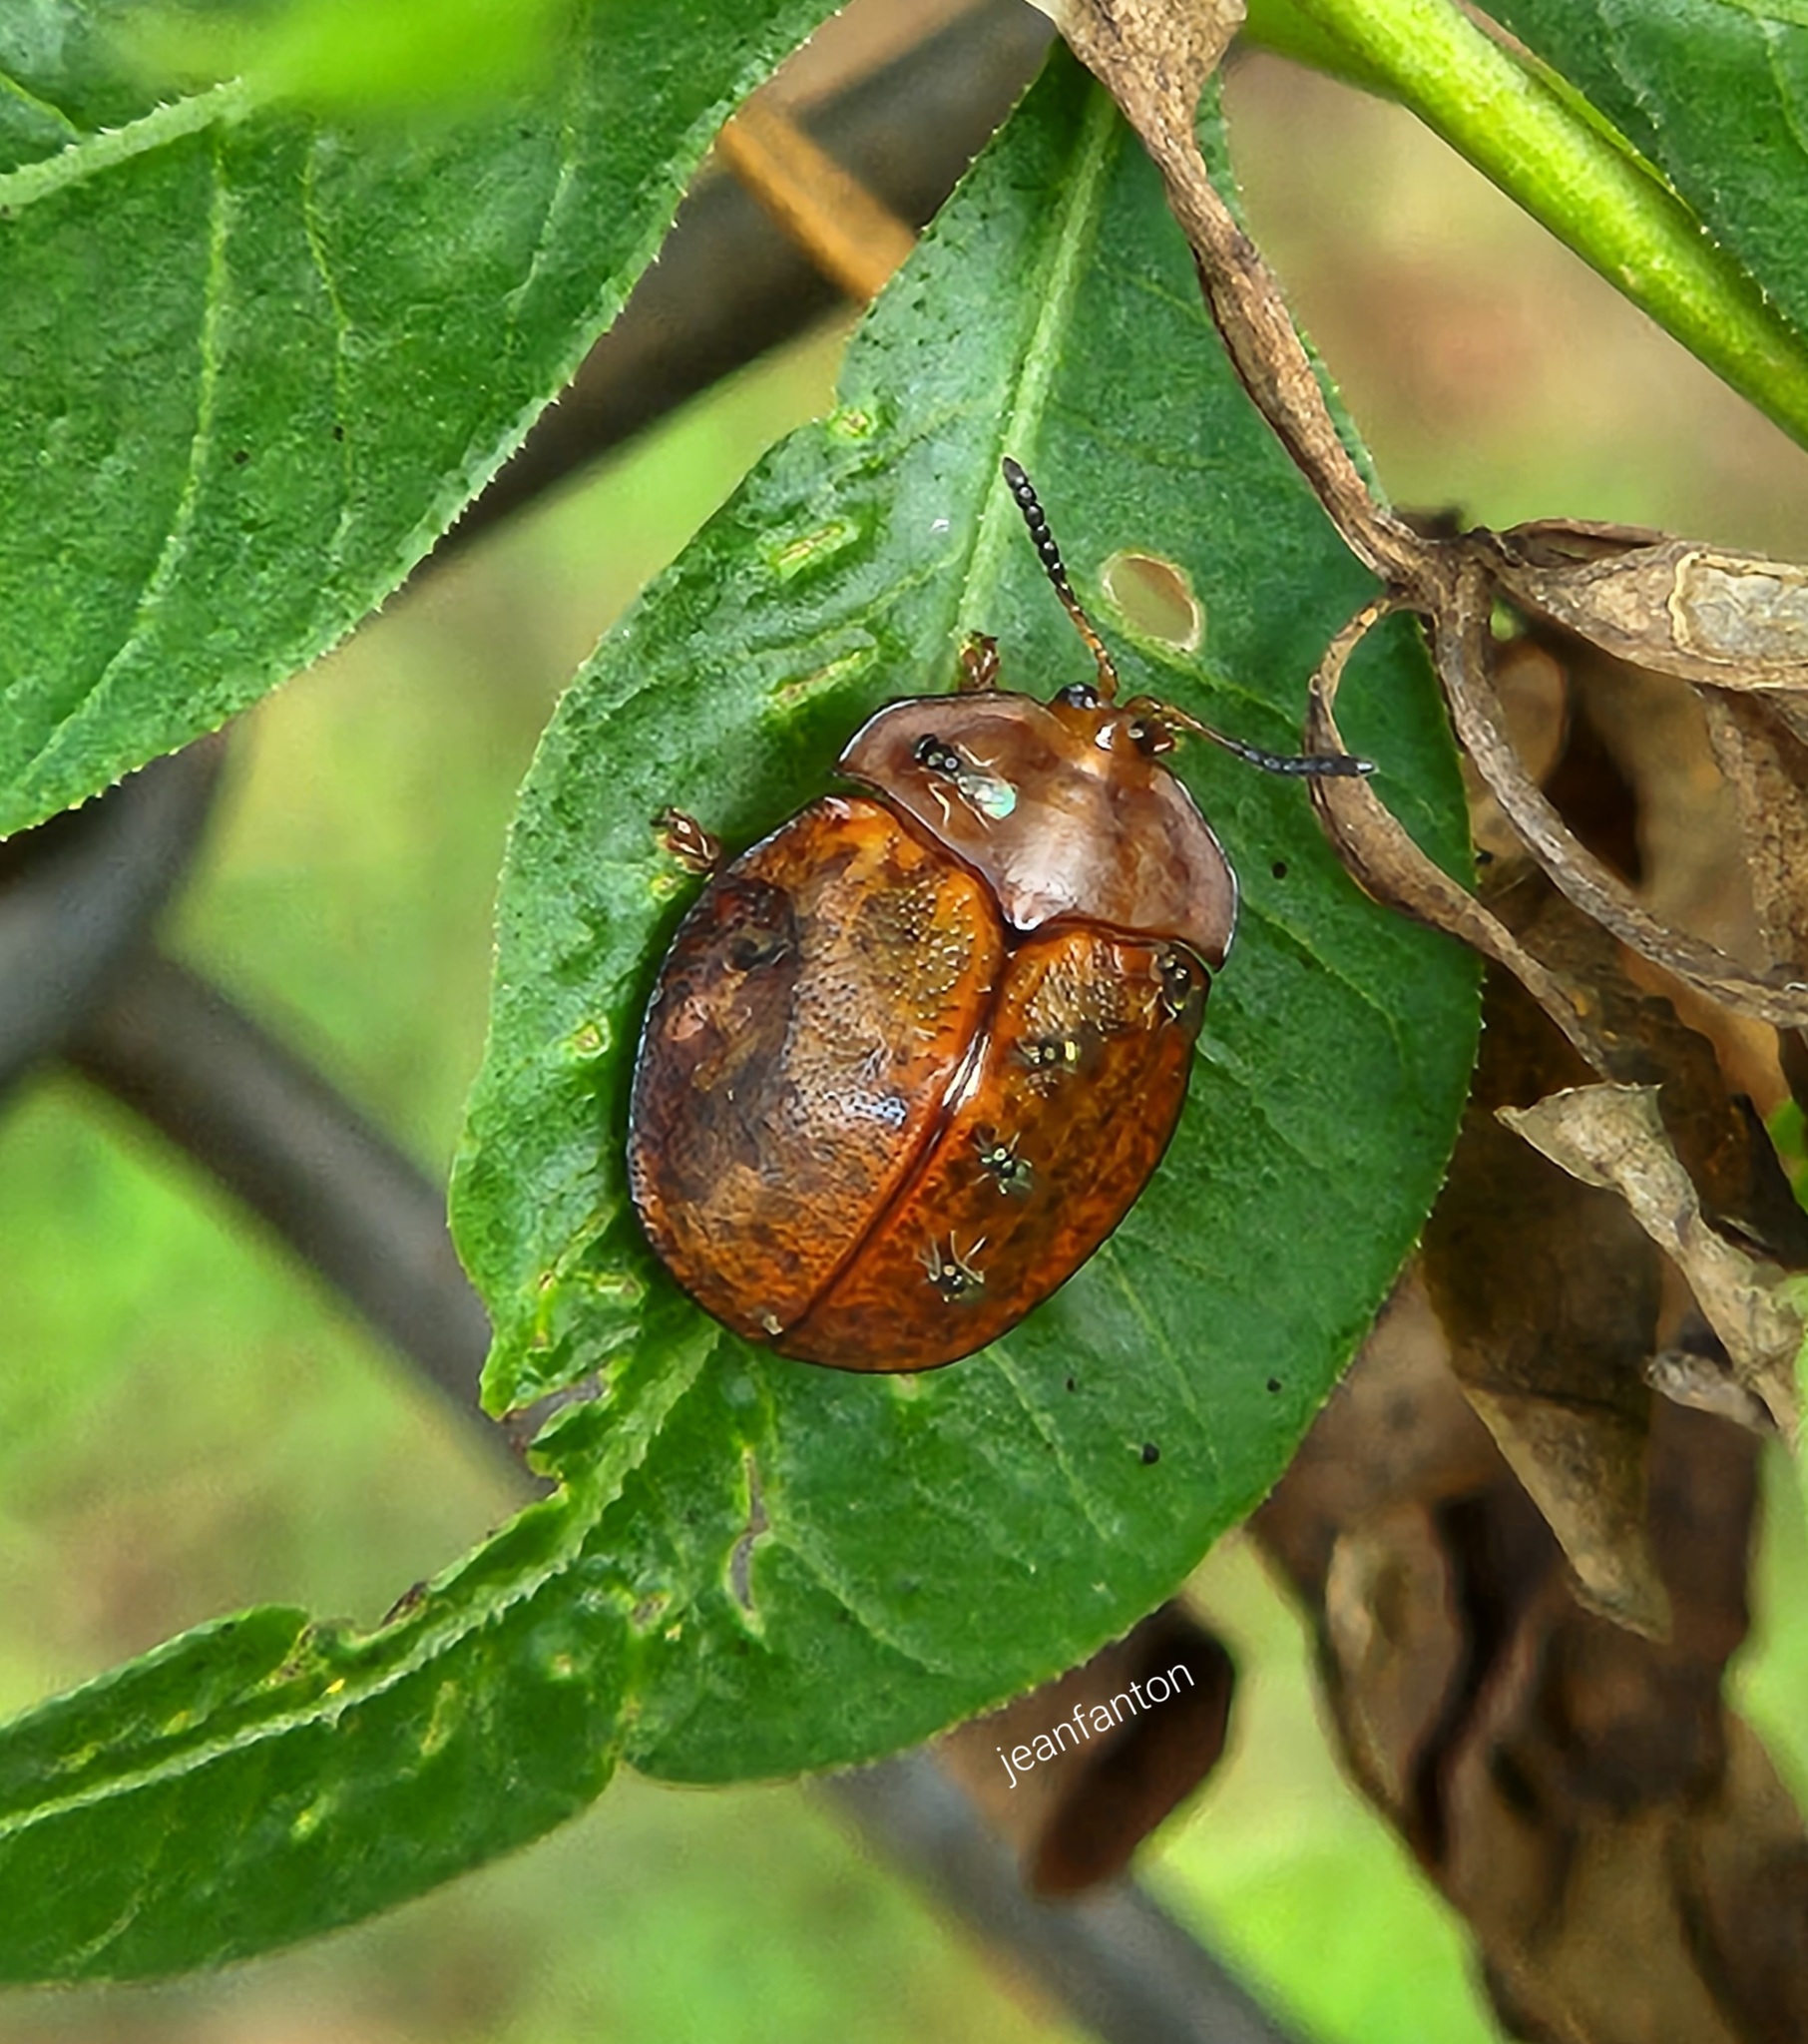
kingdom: Animalia
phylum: Arthropoda
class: Insecta
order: Coleoptera
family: Chrysomelidae
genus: Chelymorpha
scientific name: Chelymorpha inflata
